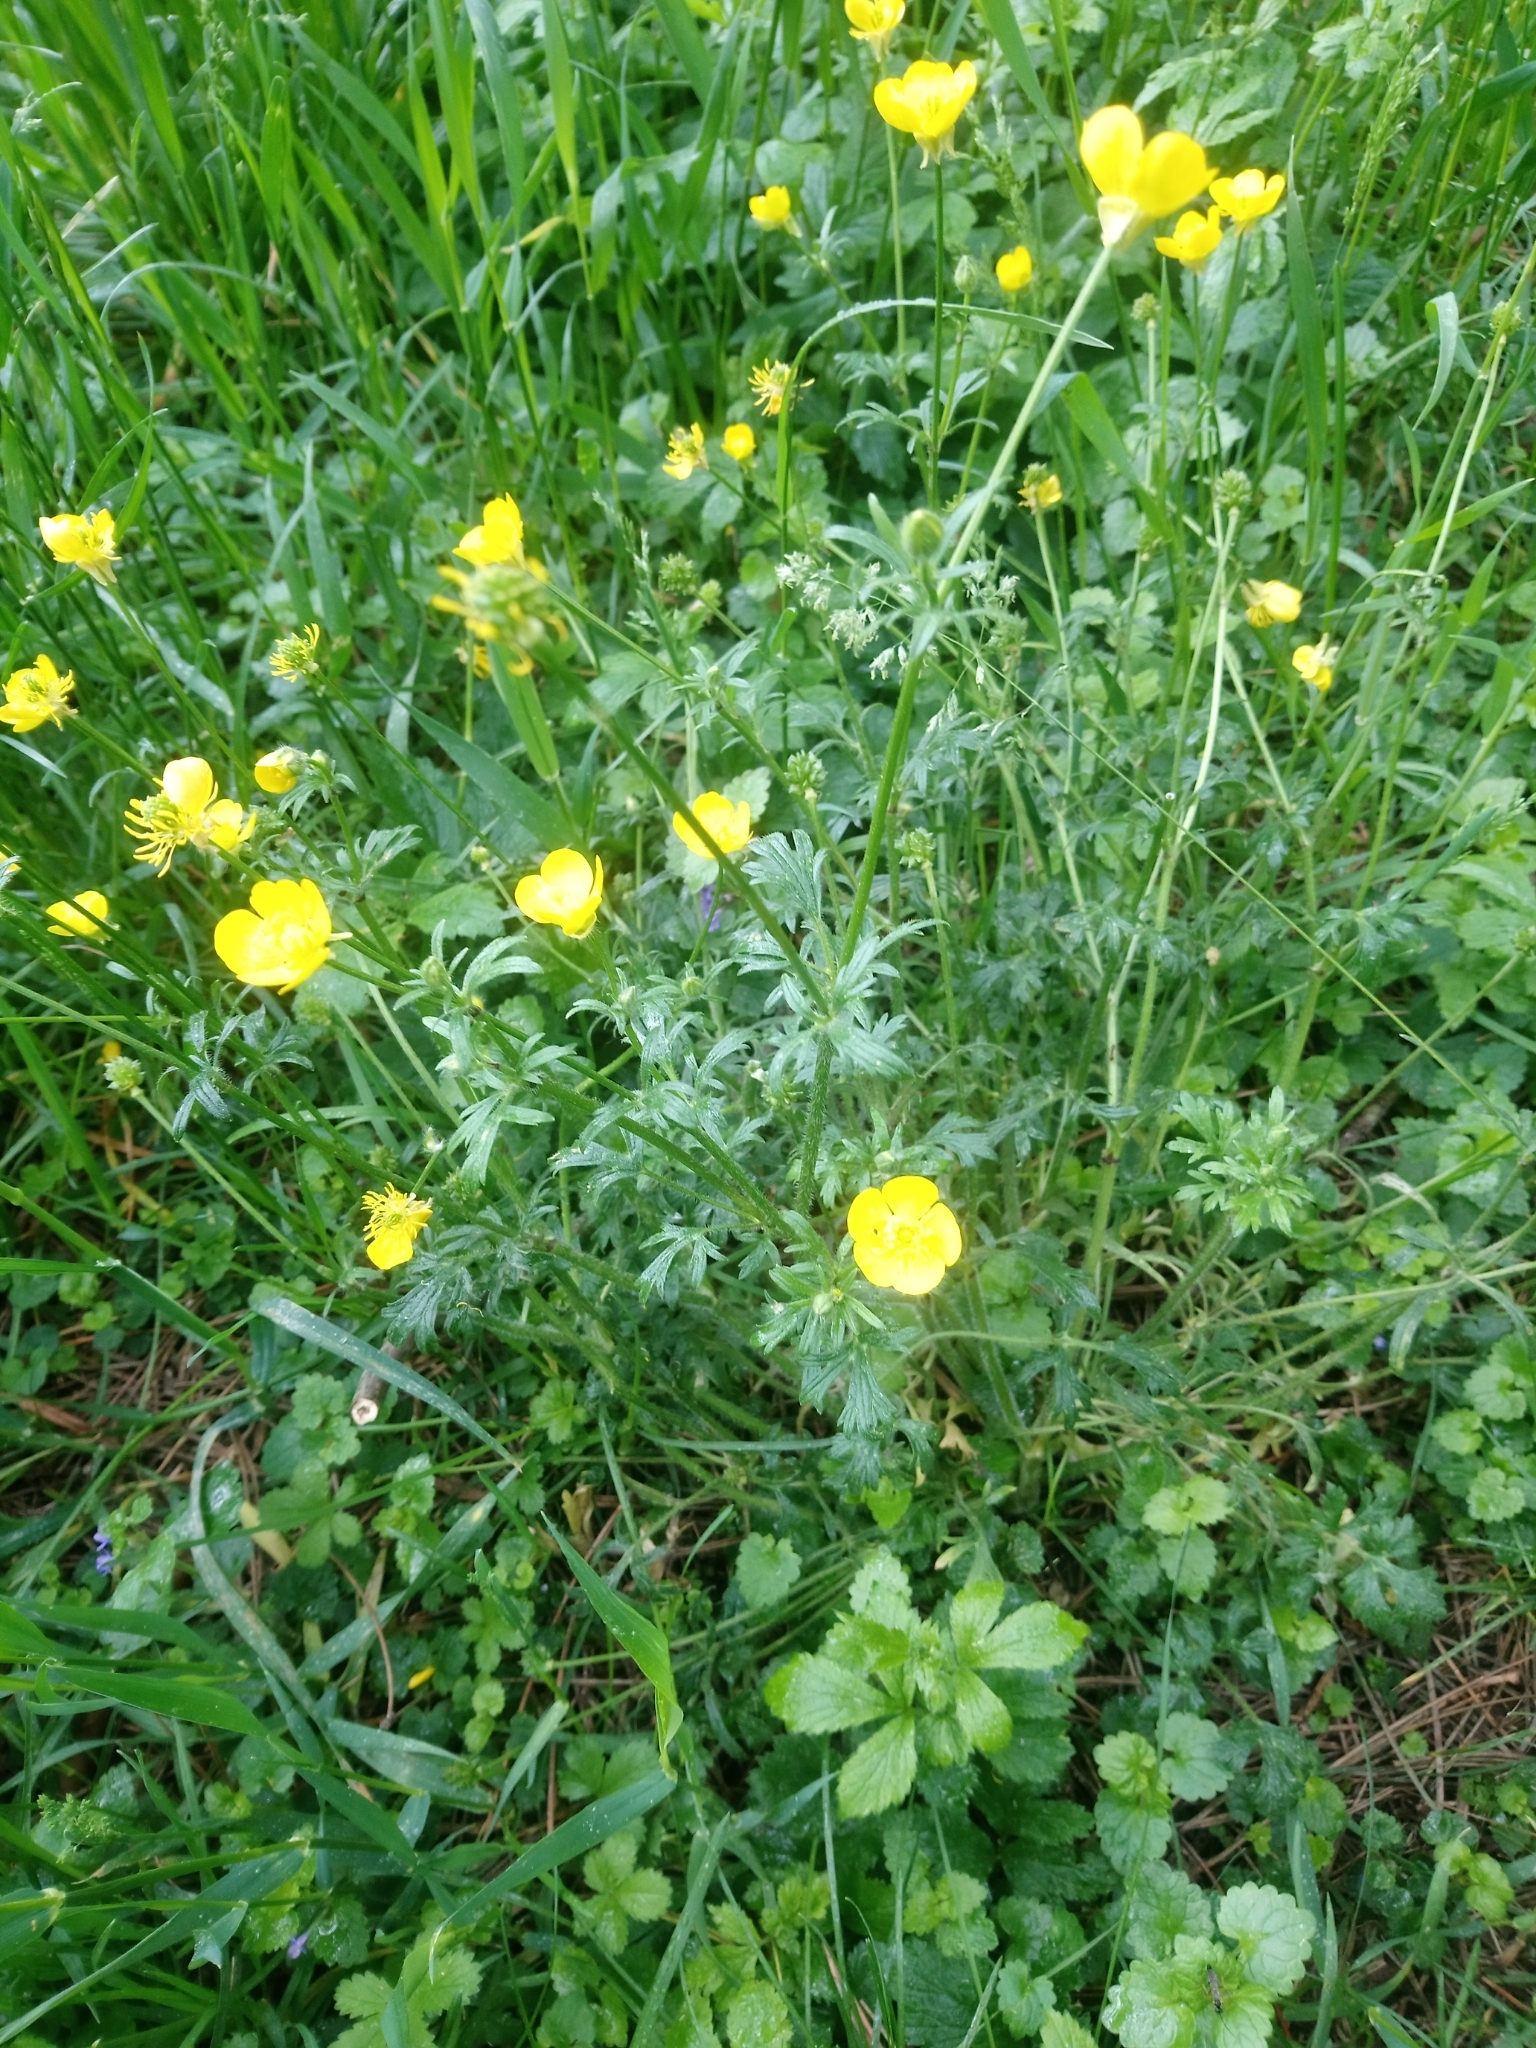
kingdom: Plantae
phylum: Tracheophyta
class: Magnoliopsida
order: Ranunculales
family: Ranunculaceae
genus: Ranunculus
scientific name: Ranunculus bulbosus
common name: Bulbous buttercup
